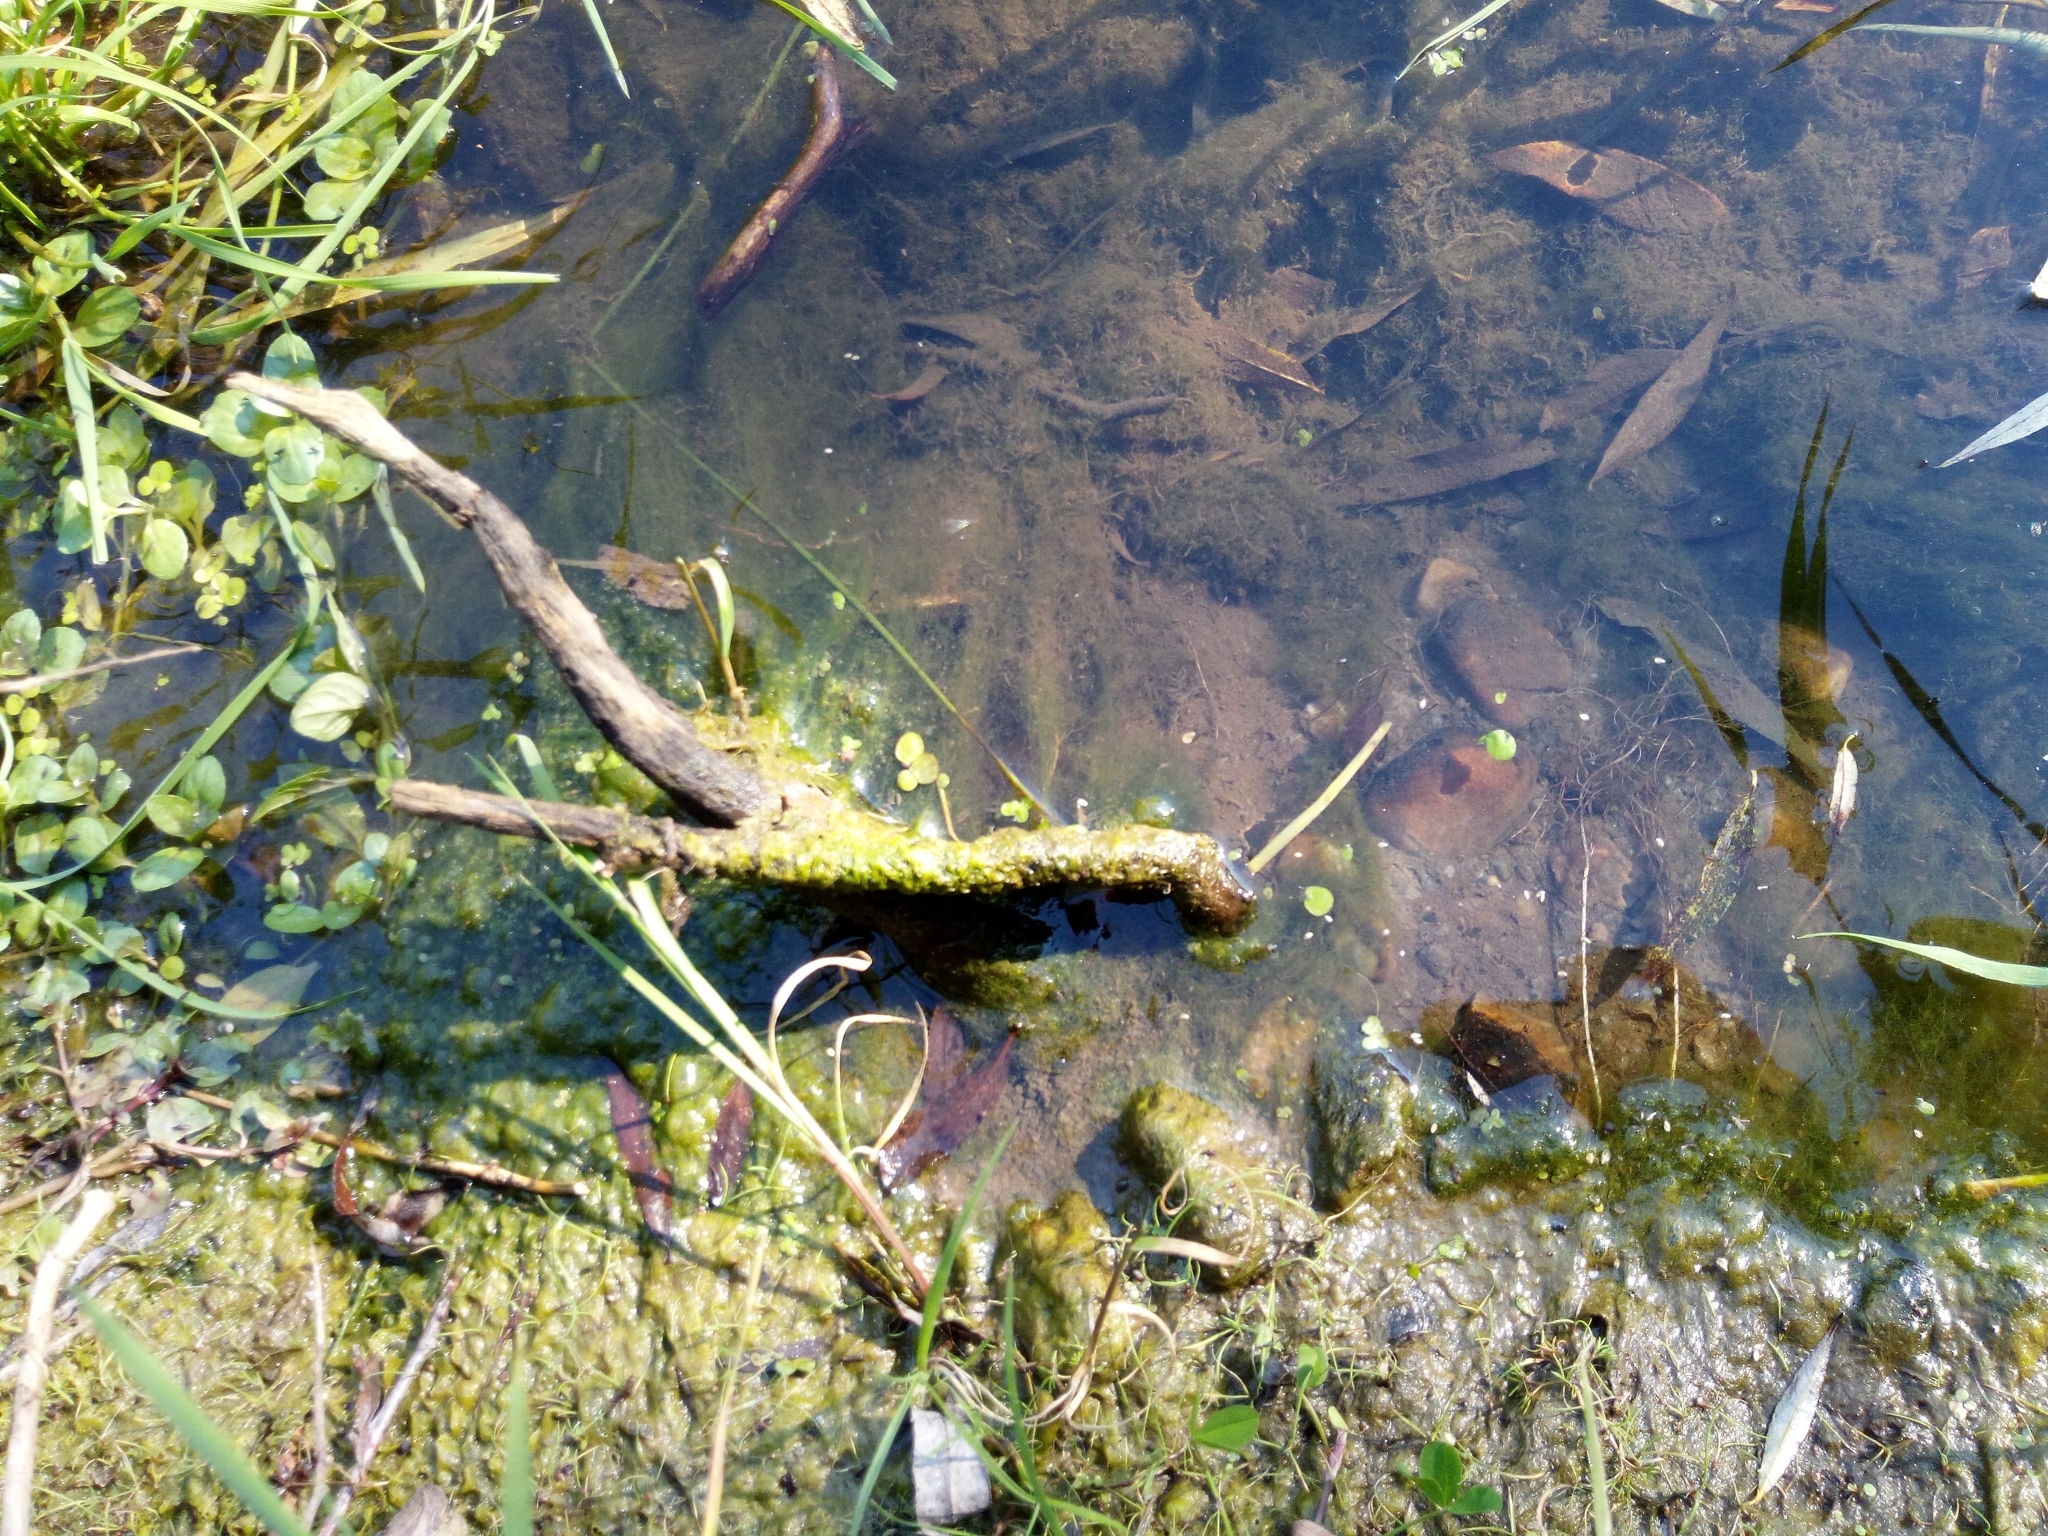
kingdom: Plantae
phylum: Tracheophyta
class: Liliopsida
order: Alismatales
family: Araceae
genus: Spirodela
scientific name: Spirodela polyrhiza
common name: Great duckweed
